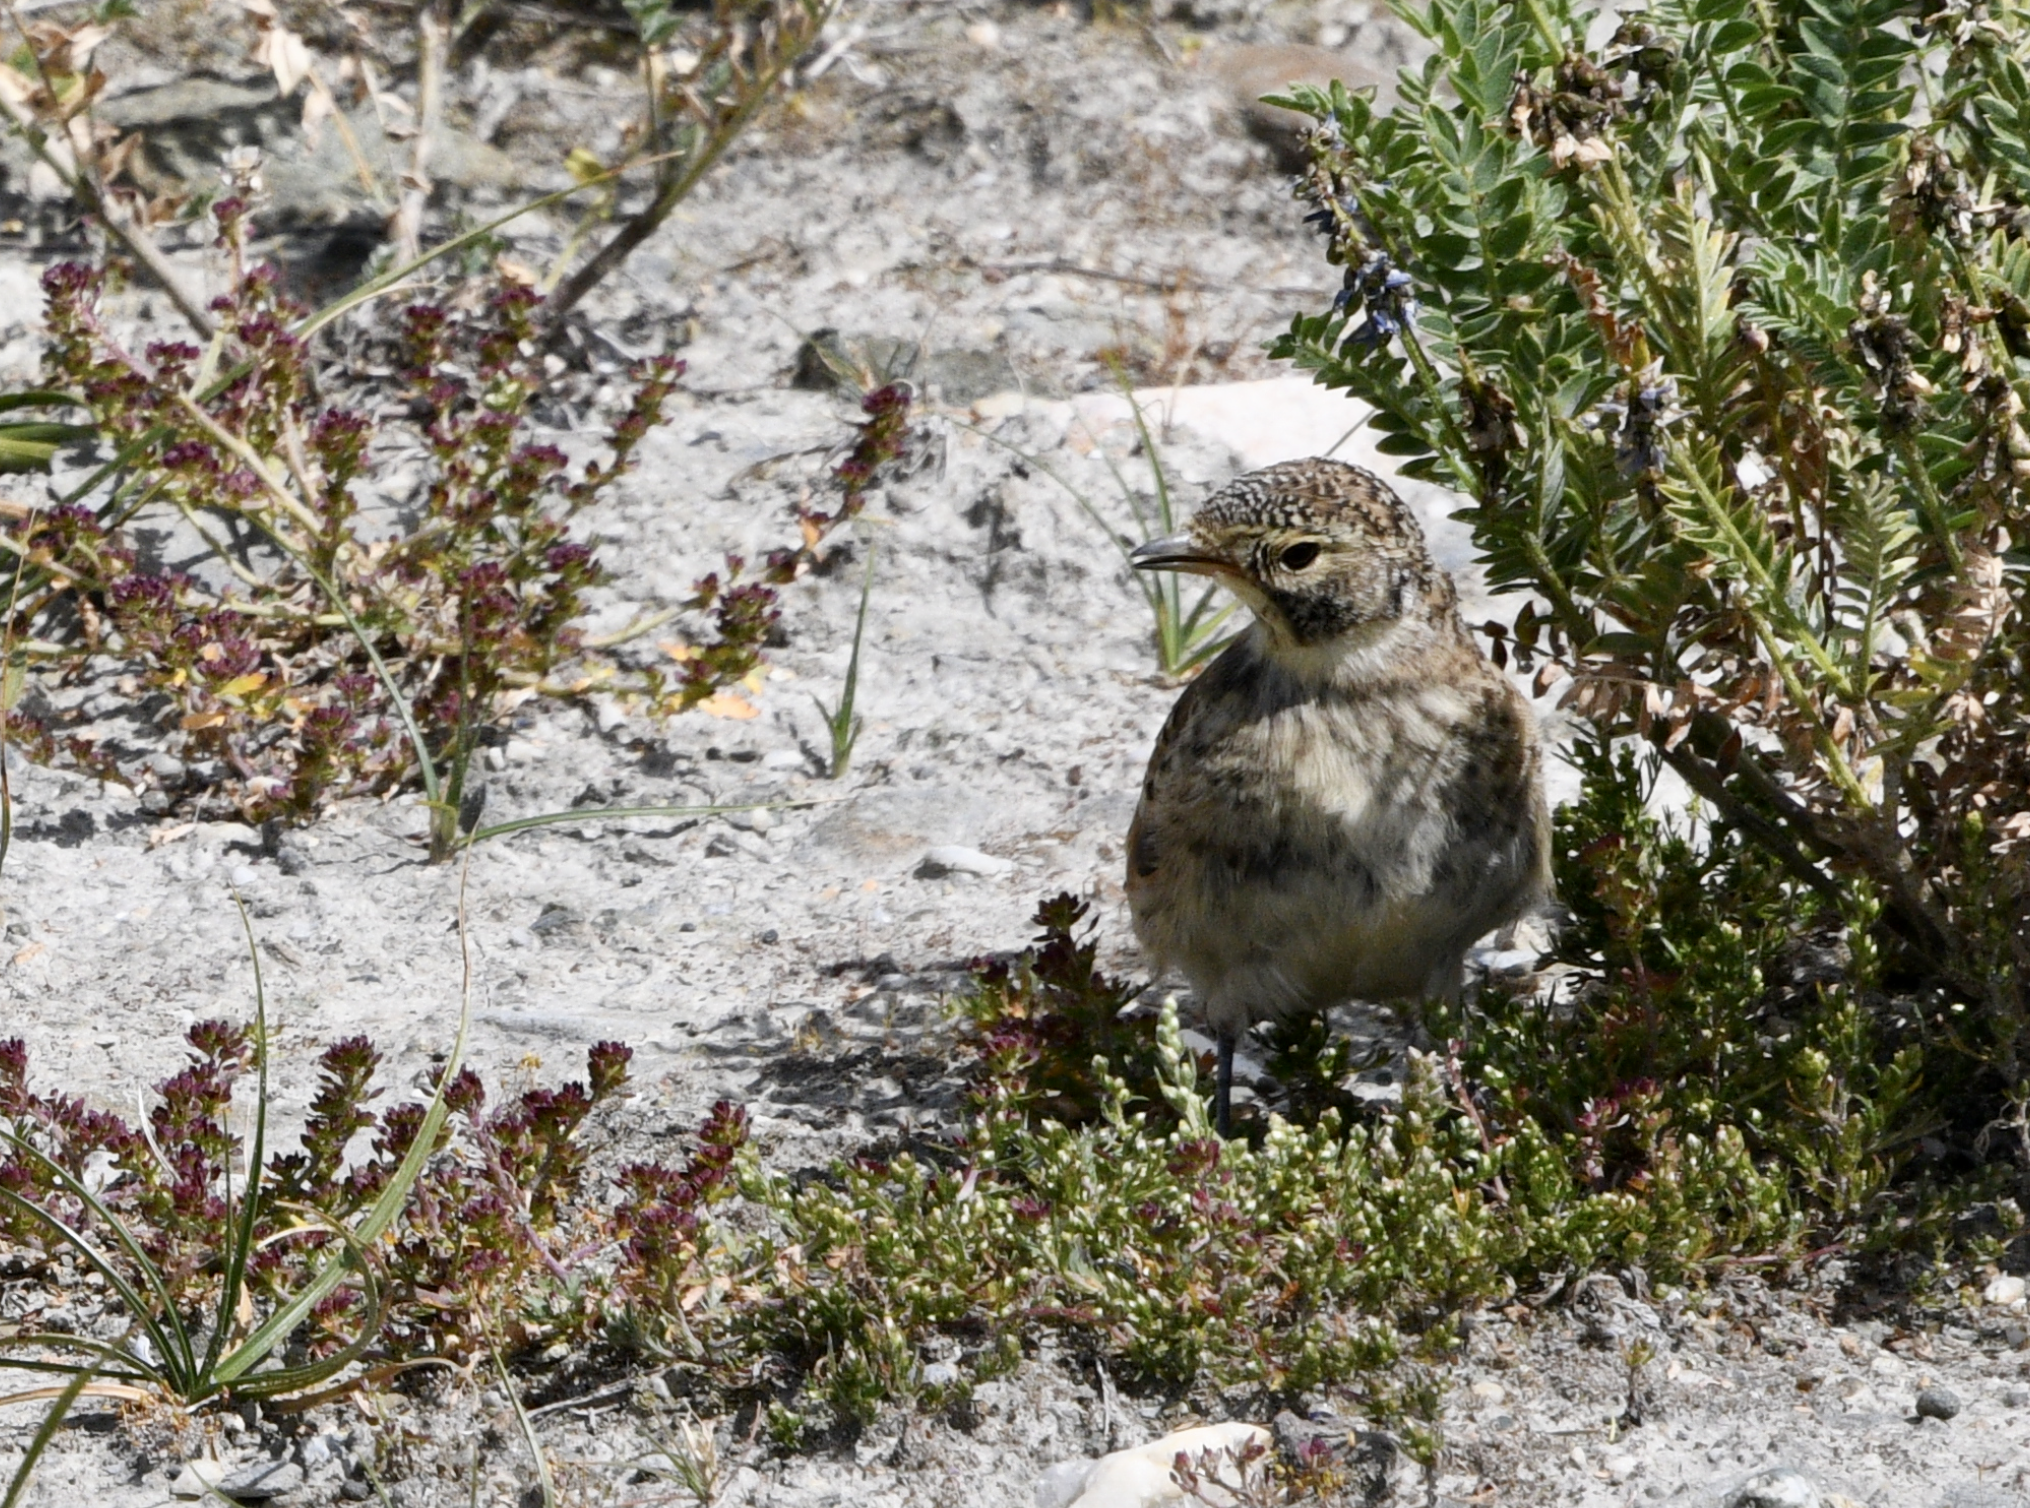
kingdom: Animalia
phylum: Chordata
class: Aves
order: Passeriformes
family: Alaudidae
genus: Eremophila
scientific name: Eremophila alpestris
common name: Horned lark
